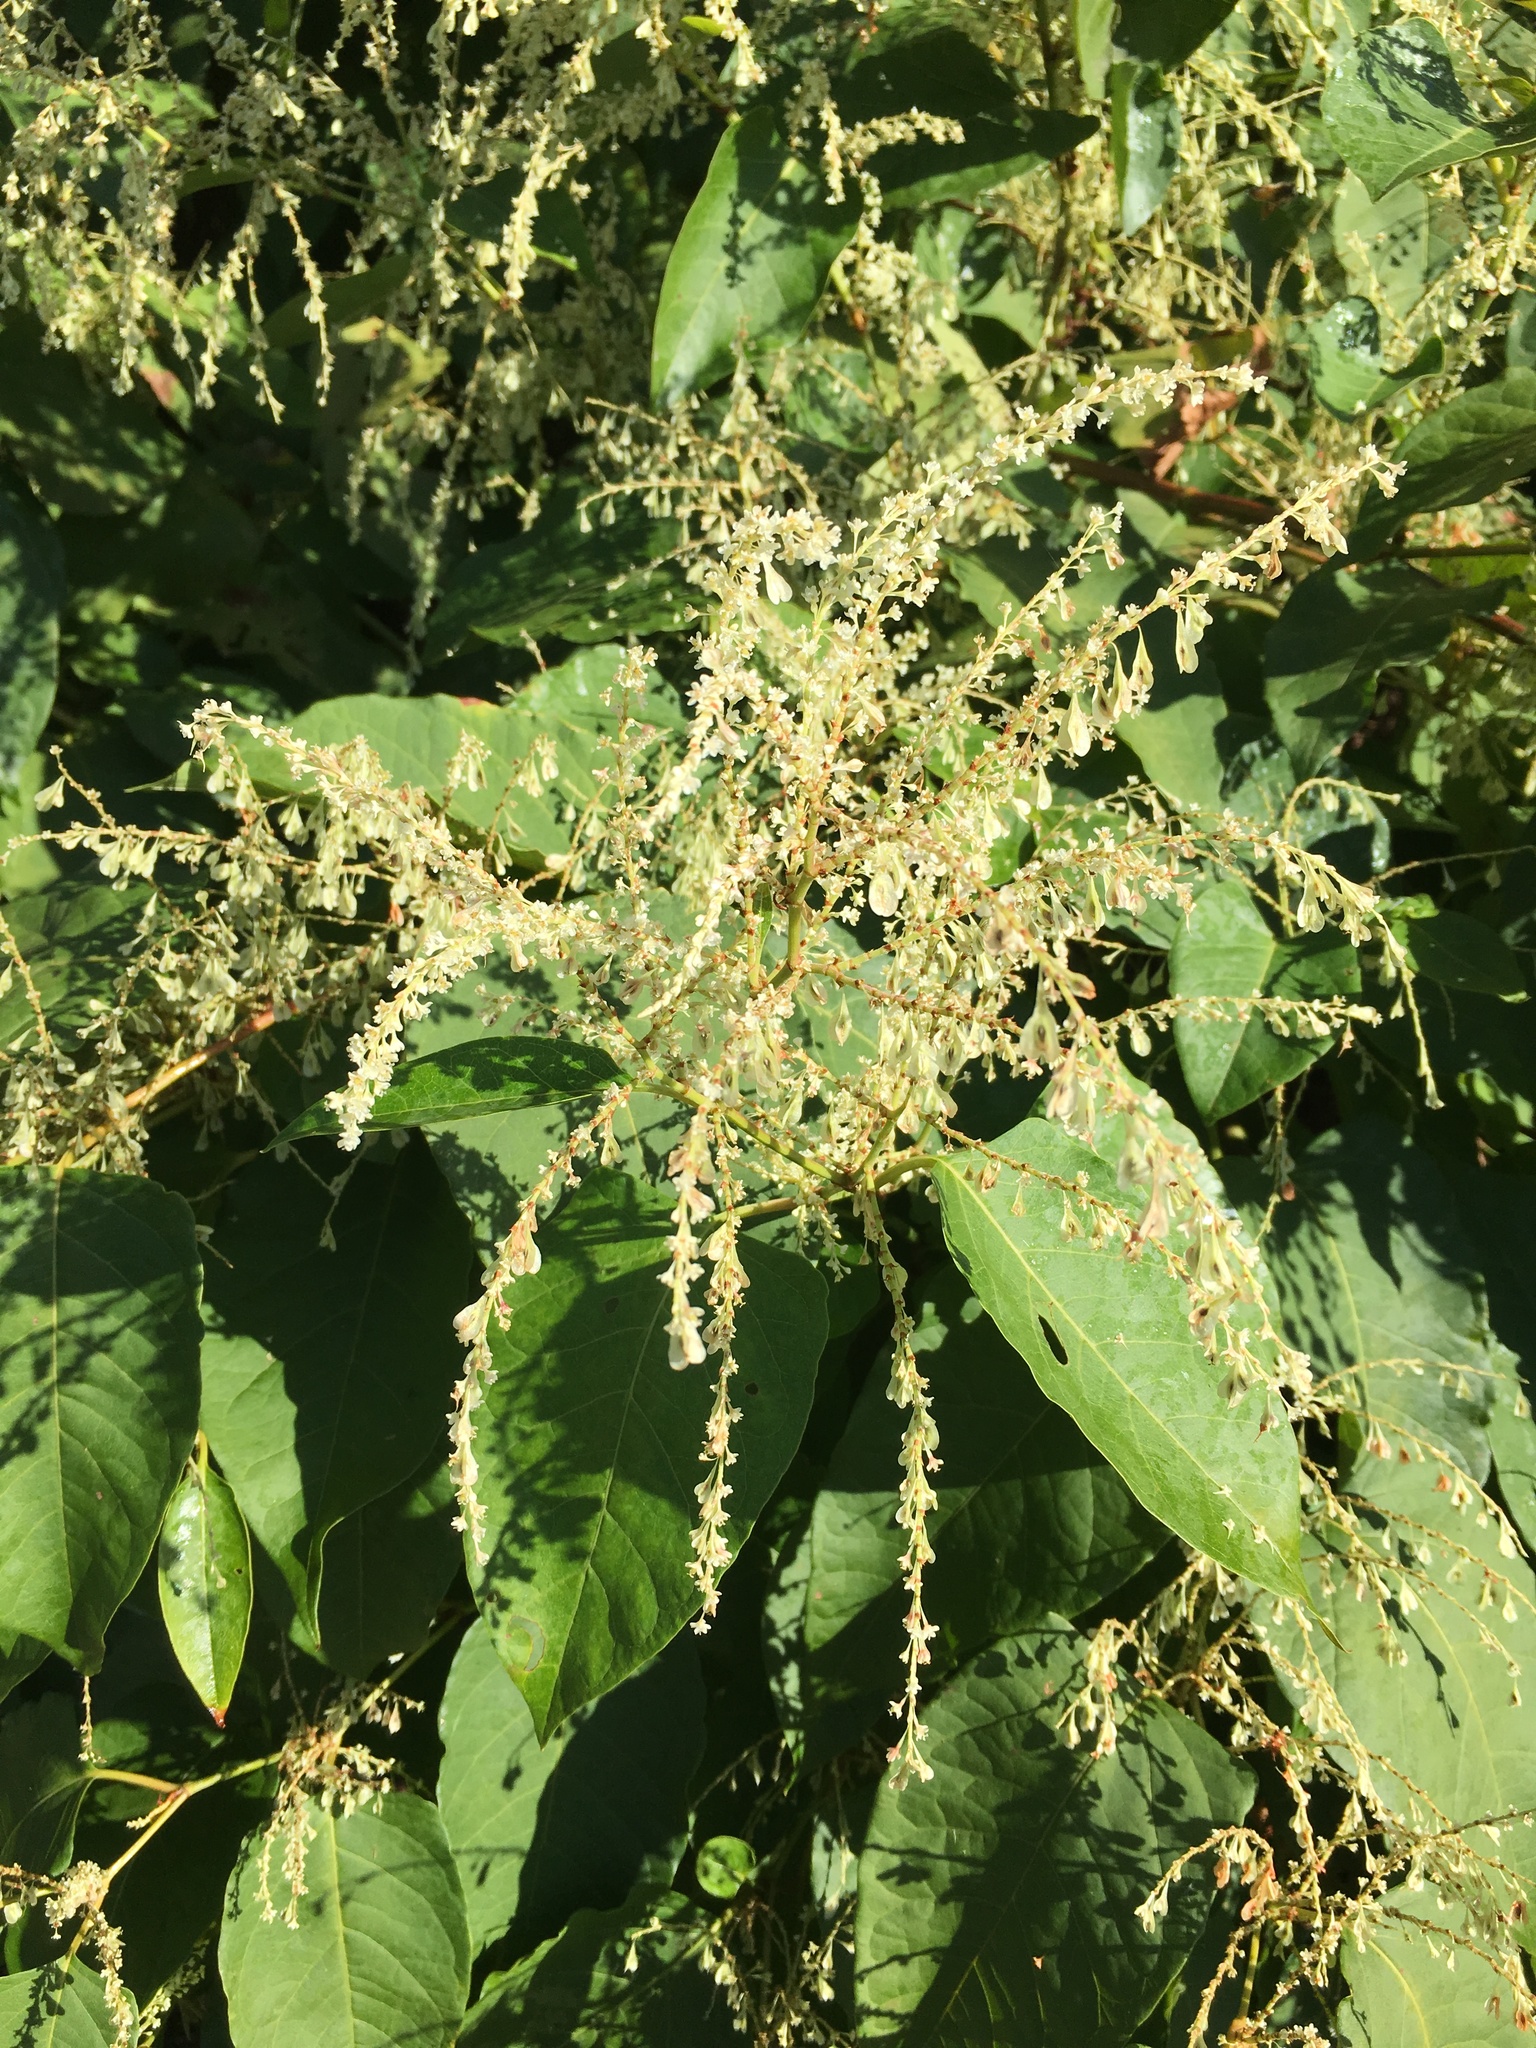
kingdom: Plantae
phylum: Tracheophyta
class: Magnoliopsida
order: Caryophyllales
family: Polygonaceae
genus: Reynoutria
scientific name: Reynoutria japonica
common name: Japanese knotweed
